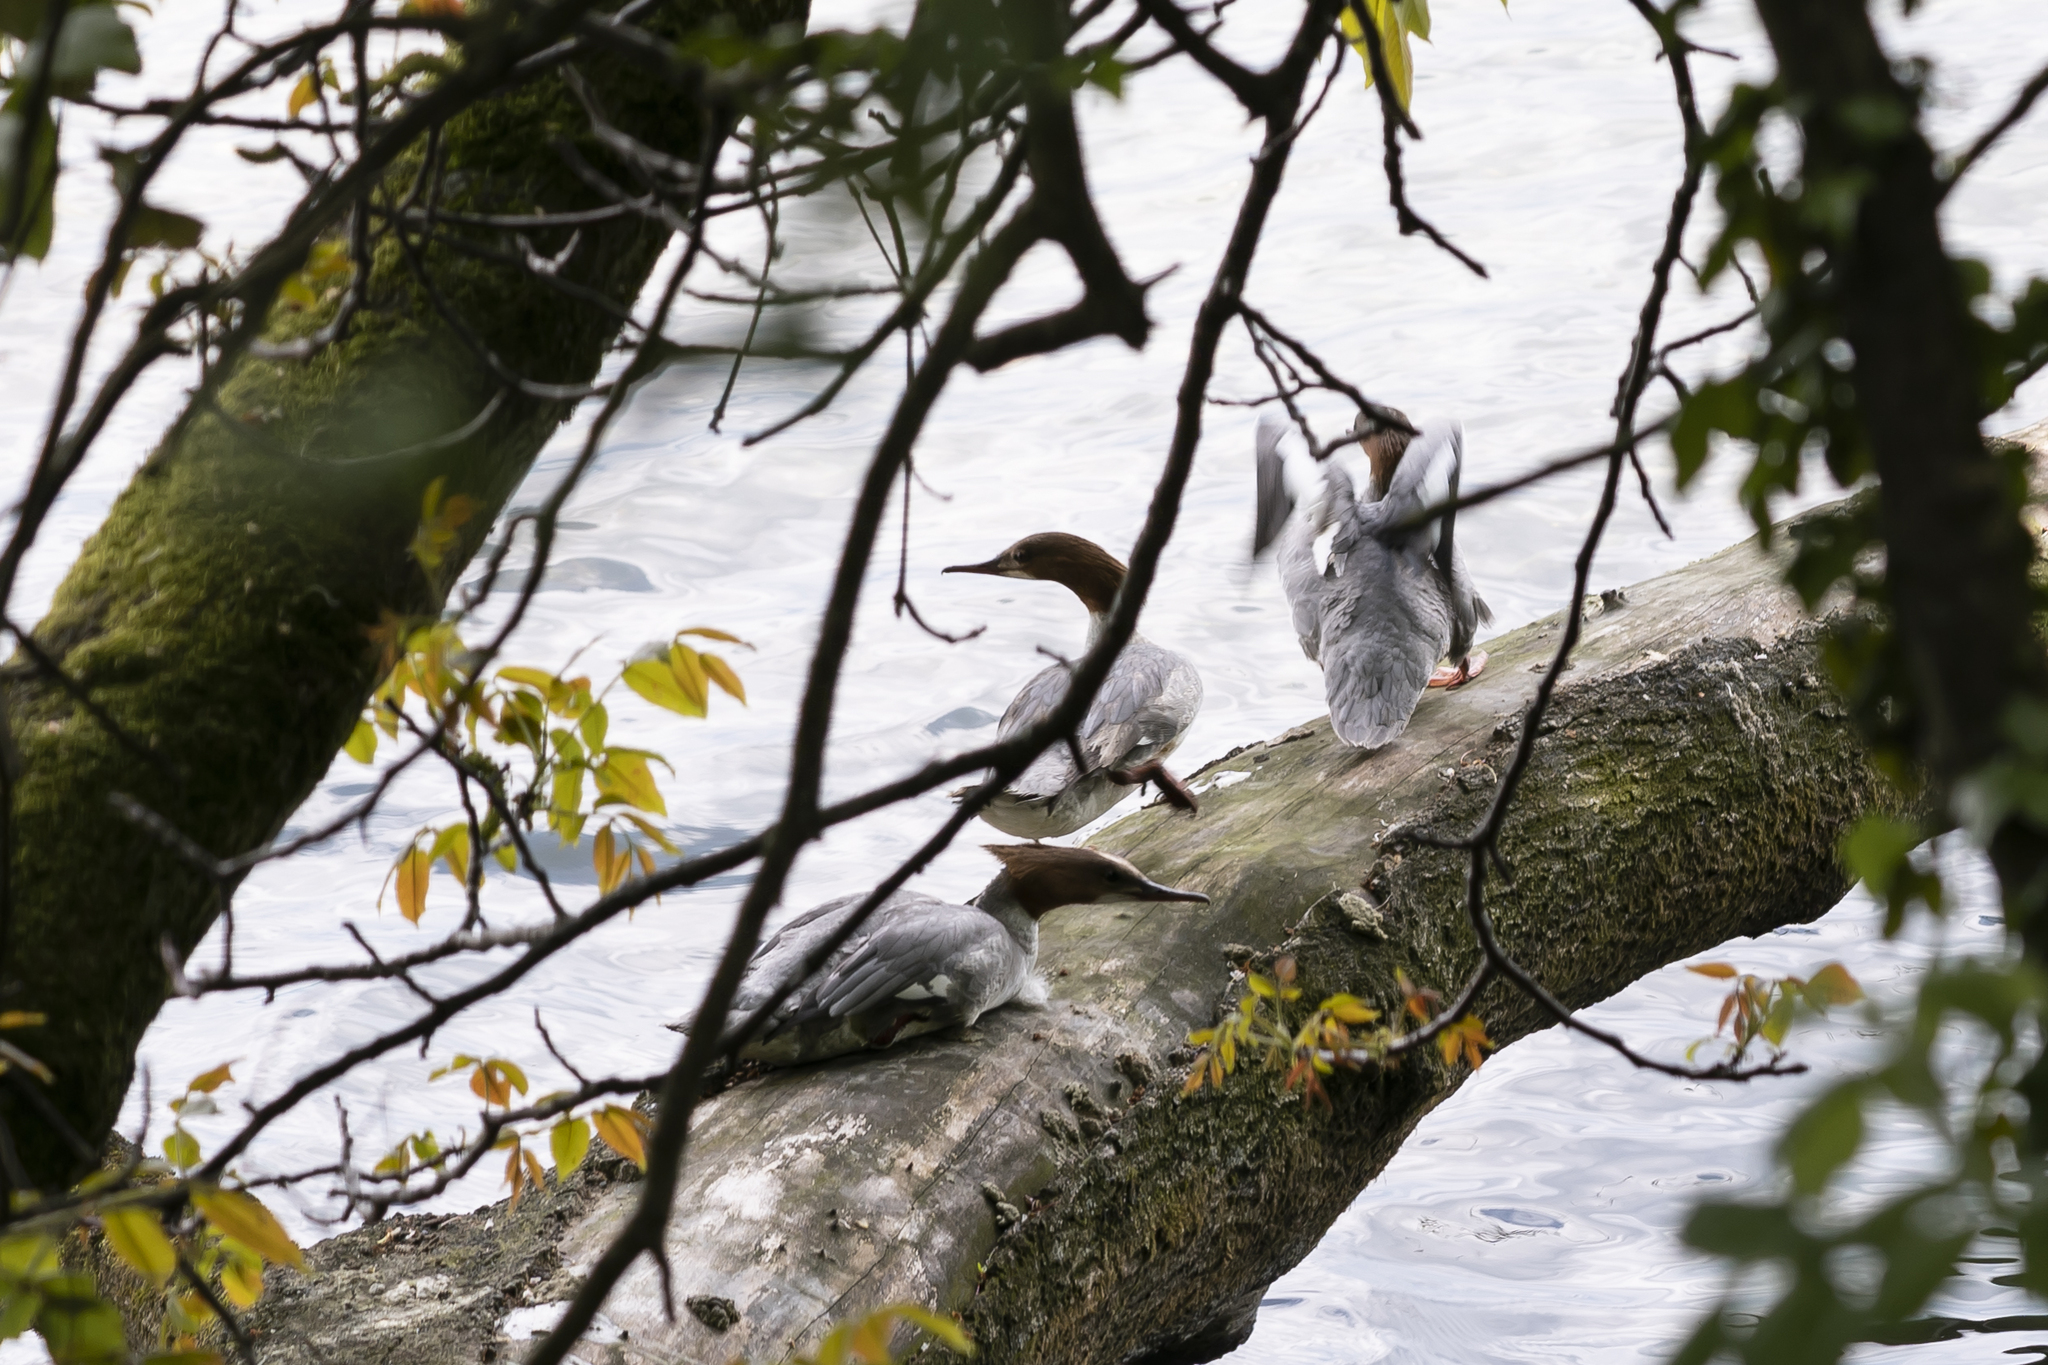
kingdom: Animalia
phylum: Chordata
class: Aves
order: Anseriformes
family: Anatidae
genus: Mergus
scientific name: Mergus merganser
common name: Common merganser
